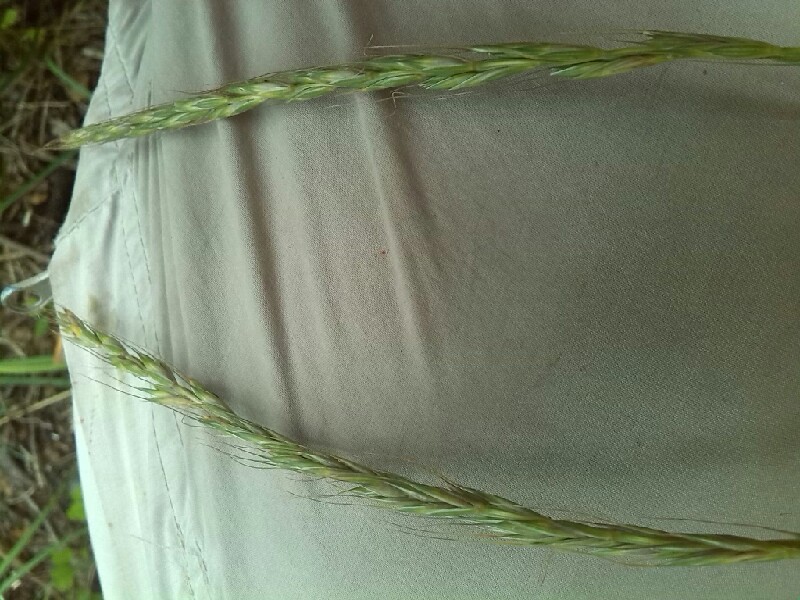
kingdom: Plantae
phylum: Tracheophyta
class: Liliopsida
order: Poales
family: Poaceae
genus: Elymus
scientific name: Elymus caninus
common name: Bearded couch
